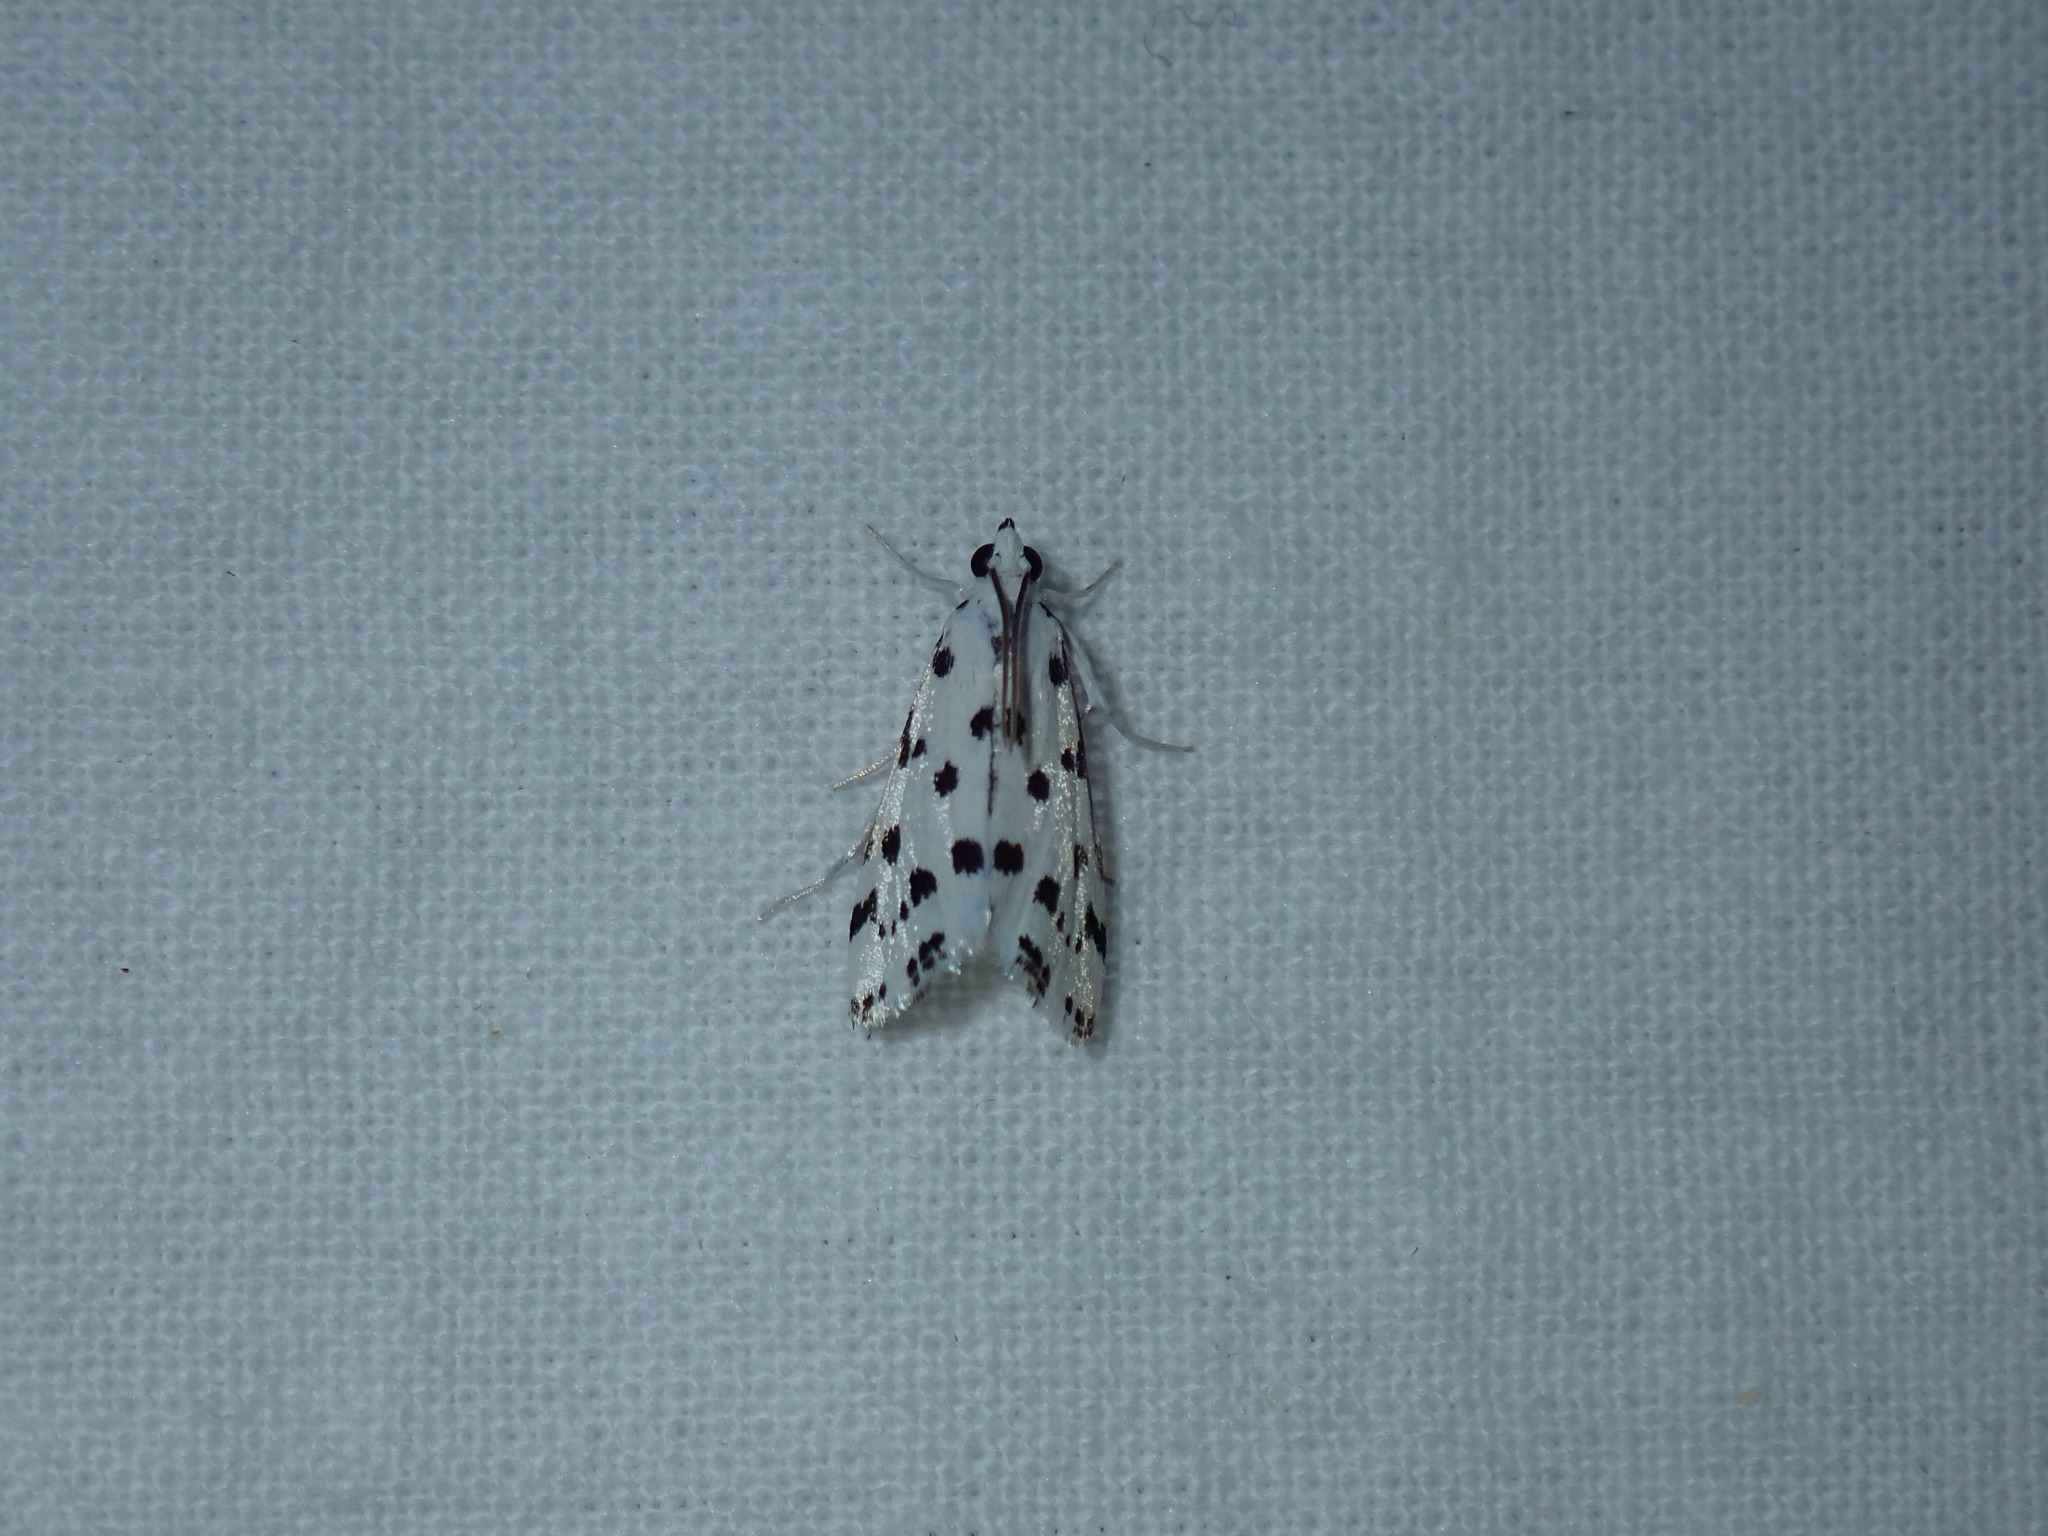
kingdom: Animalia
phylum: Arthropoda
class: Insecta
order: Lepidoptera
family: Crambidae
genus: Eustixia
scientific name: Eustixia pupula
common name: American cabbage pearl
